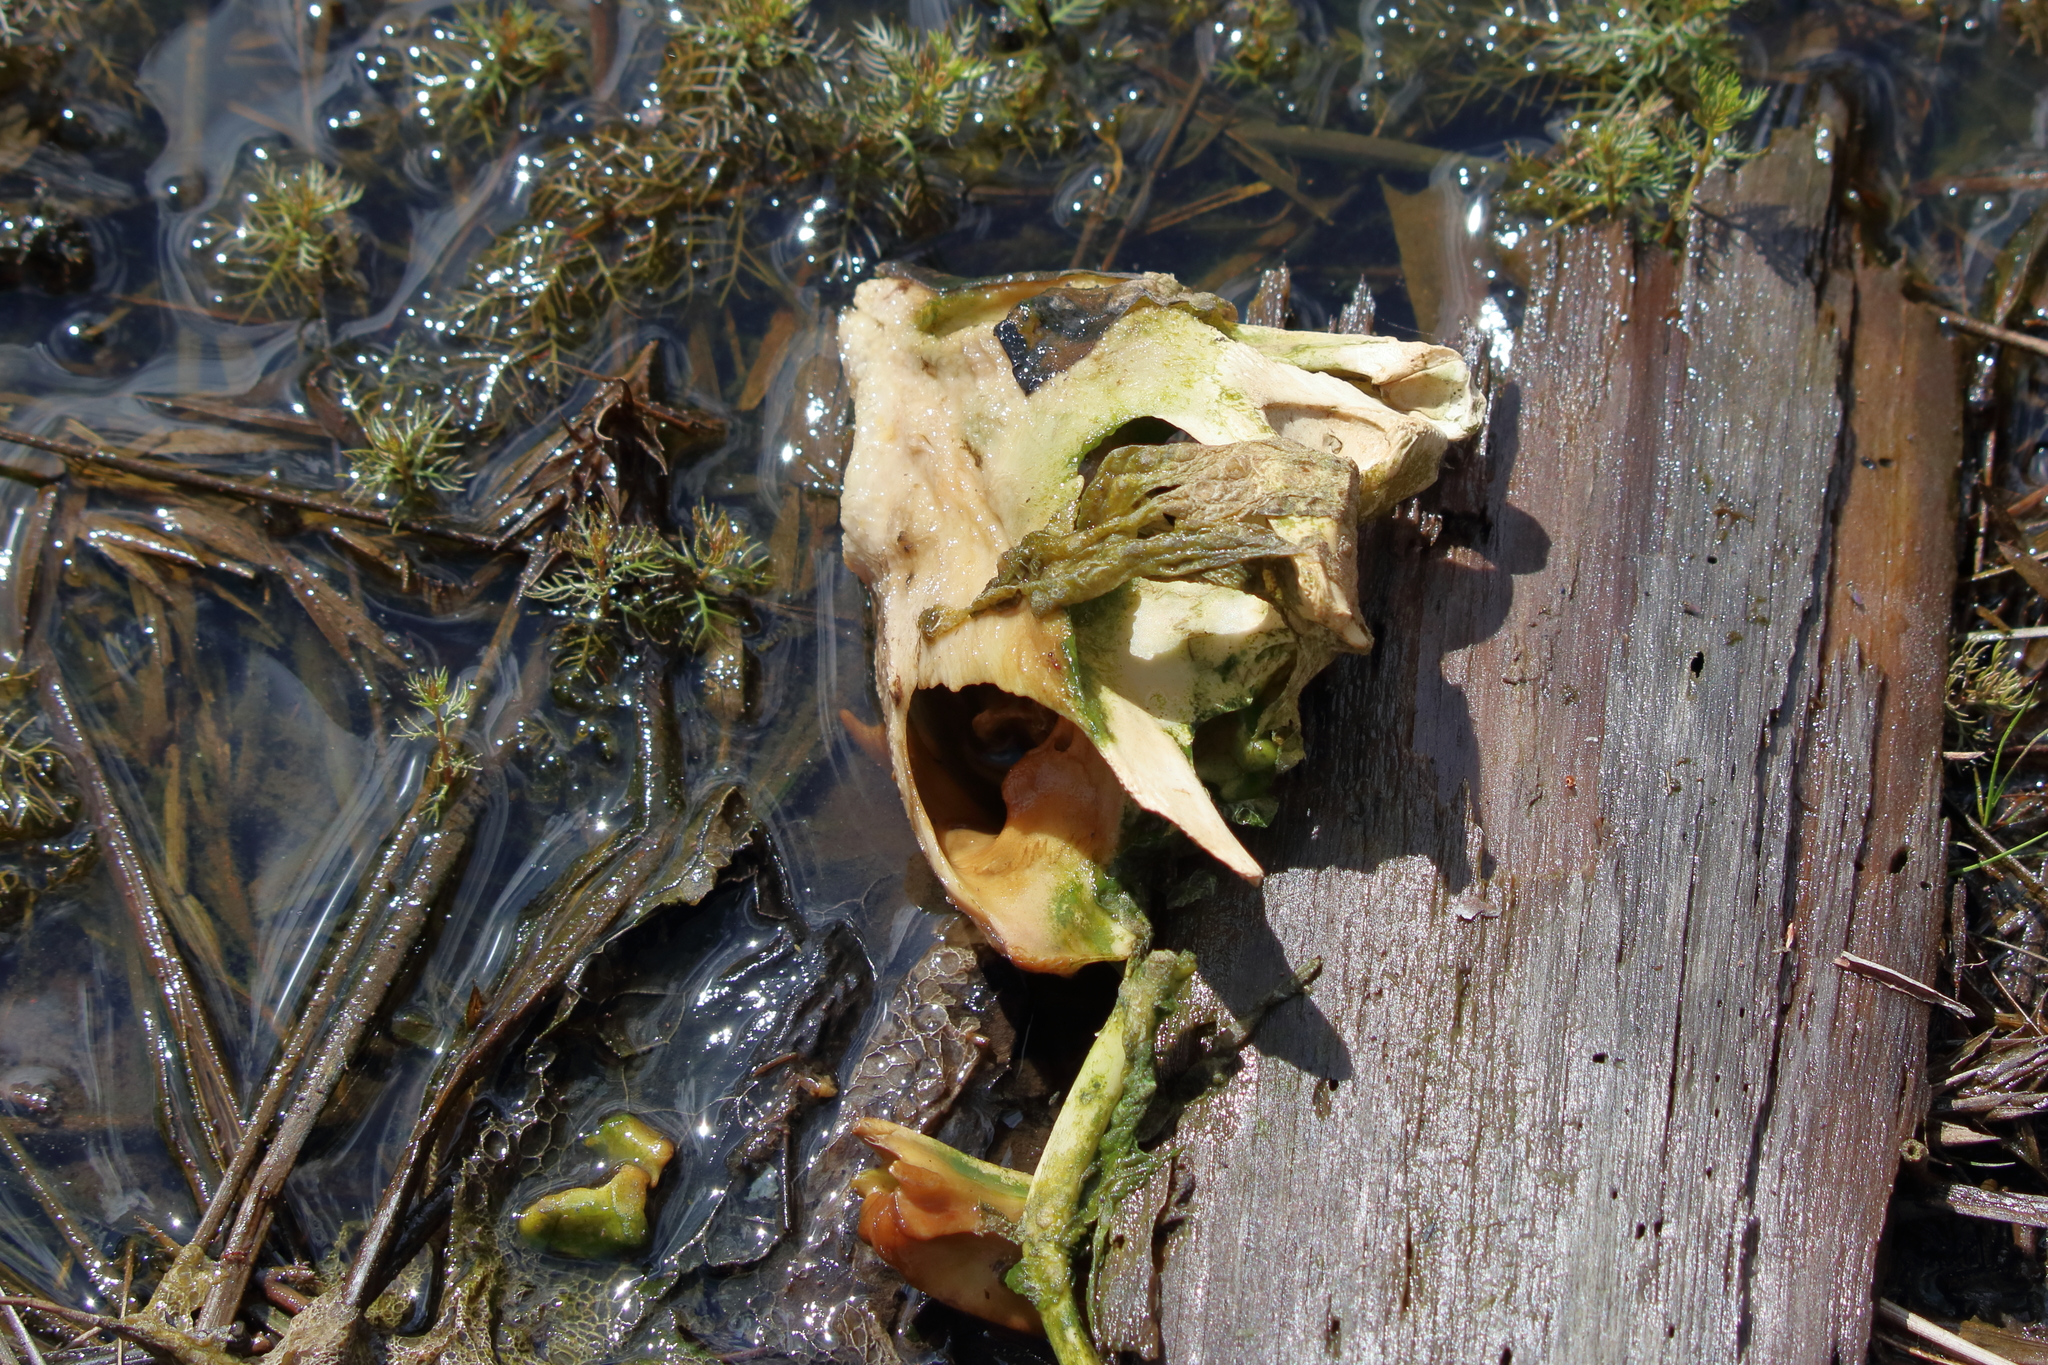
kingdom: Animalia
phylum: Chordata
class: Testudines
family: Chelydridae
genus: Chelydra
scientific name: Chelydra serpentina
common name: Common snapping turtle
